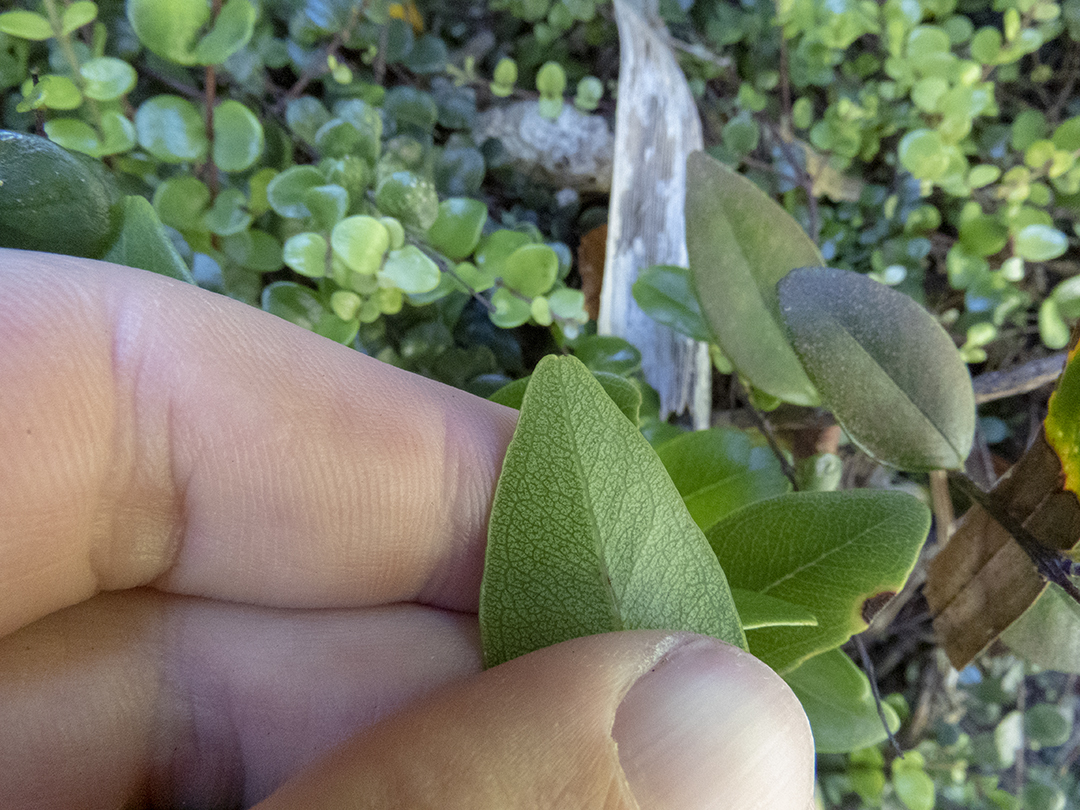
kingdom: Plantae
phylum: Tracheophyta
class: Magnoliopsida
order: Myrtales
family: Myrtaceae
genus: Metrosideros
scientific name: Metrosideros robusta
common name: Northern rata
